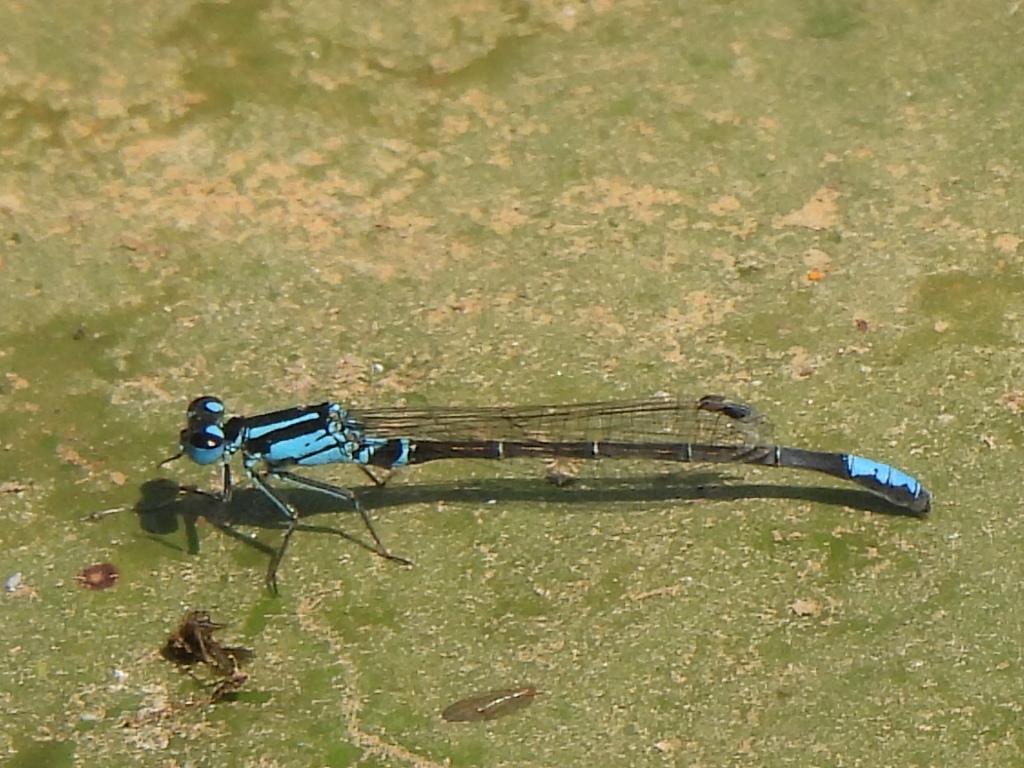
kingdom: Animalia
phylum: Arthropoda
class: Insecta
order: Odonata
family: Coenagrionidae
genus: Ischnura
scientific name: Ischnura kellicotti
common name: Lilypad forktail
